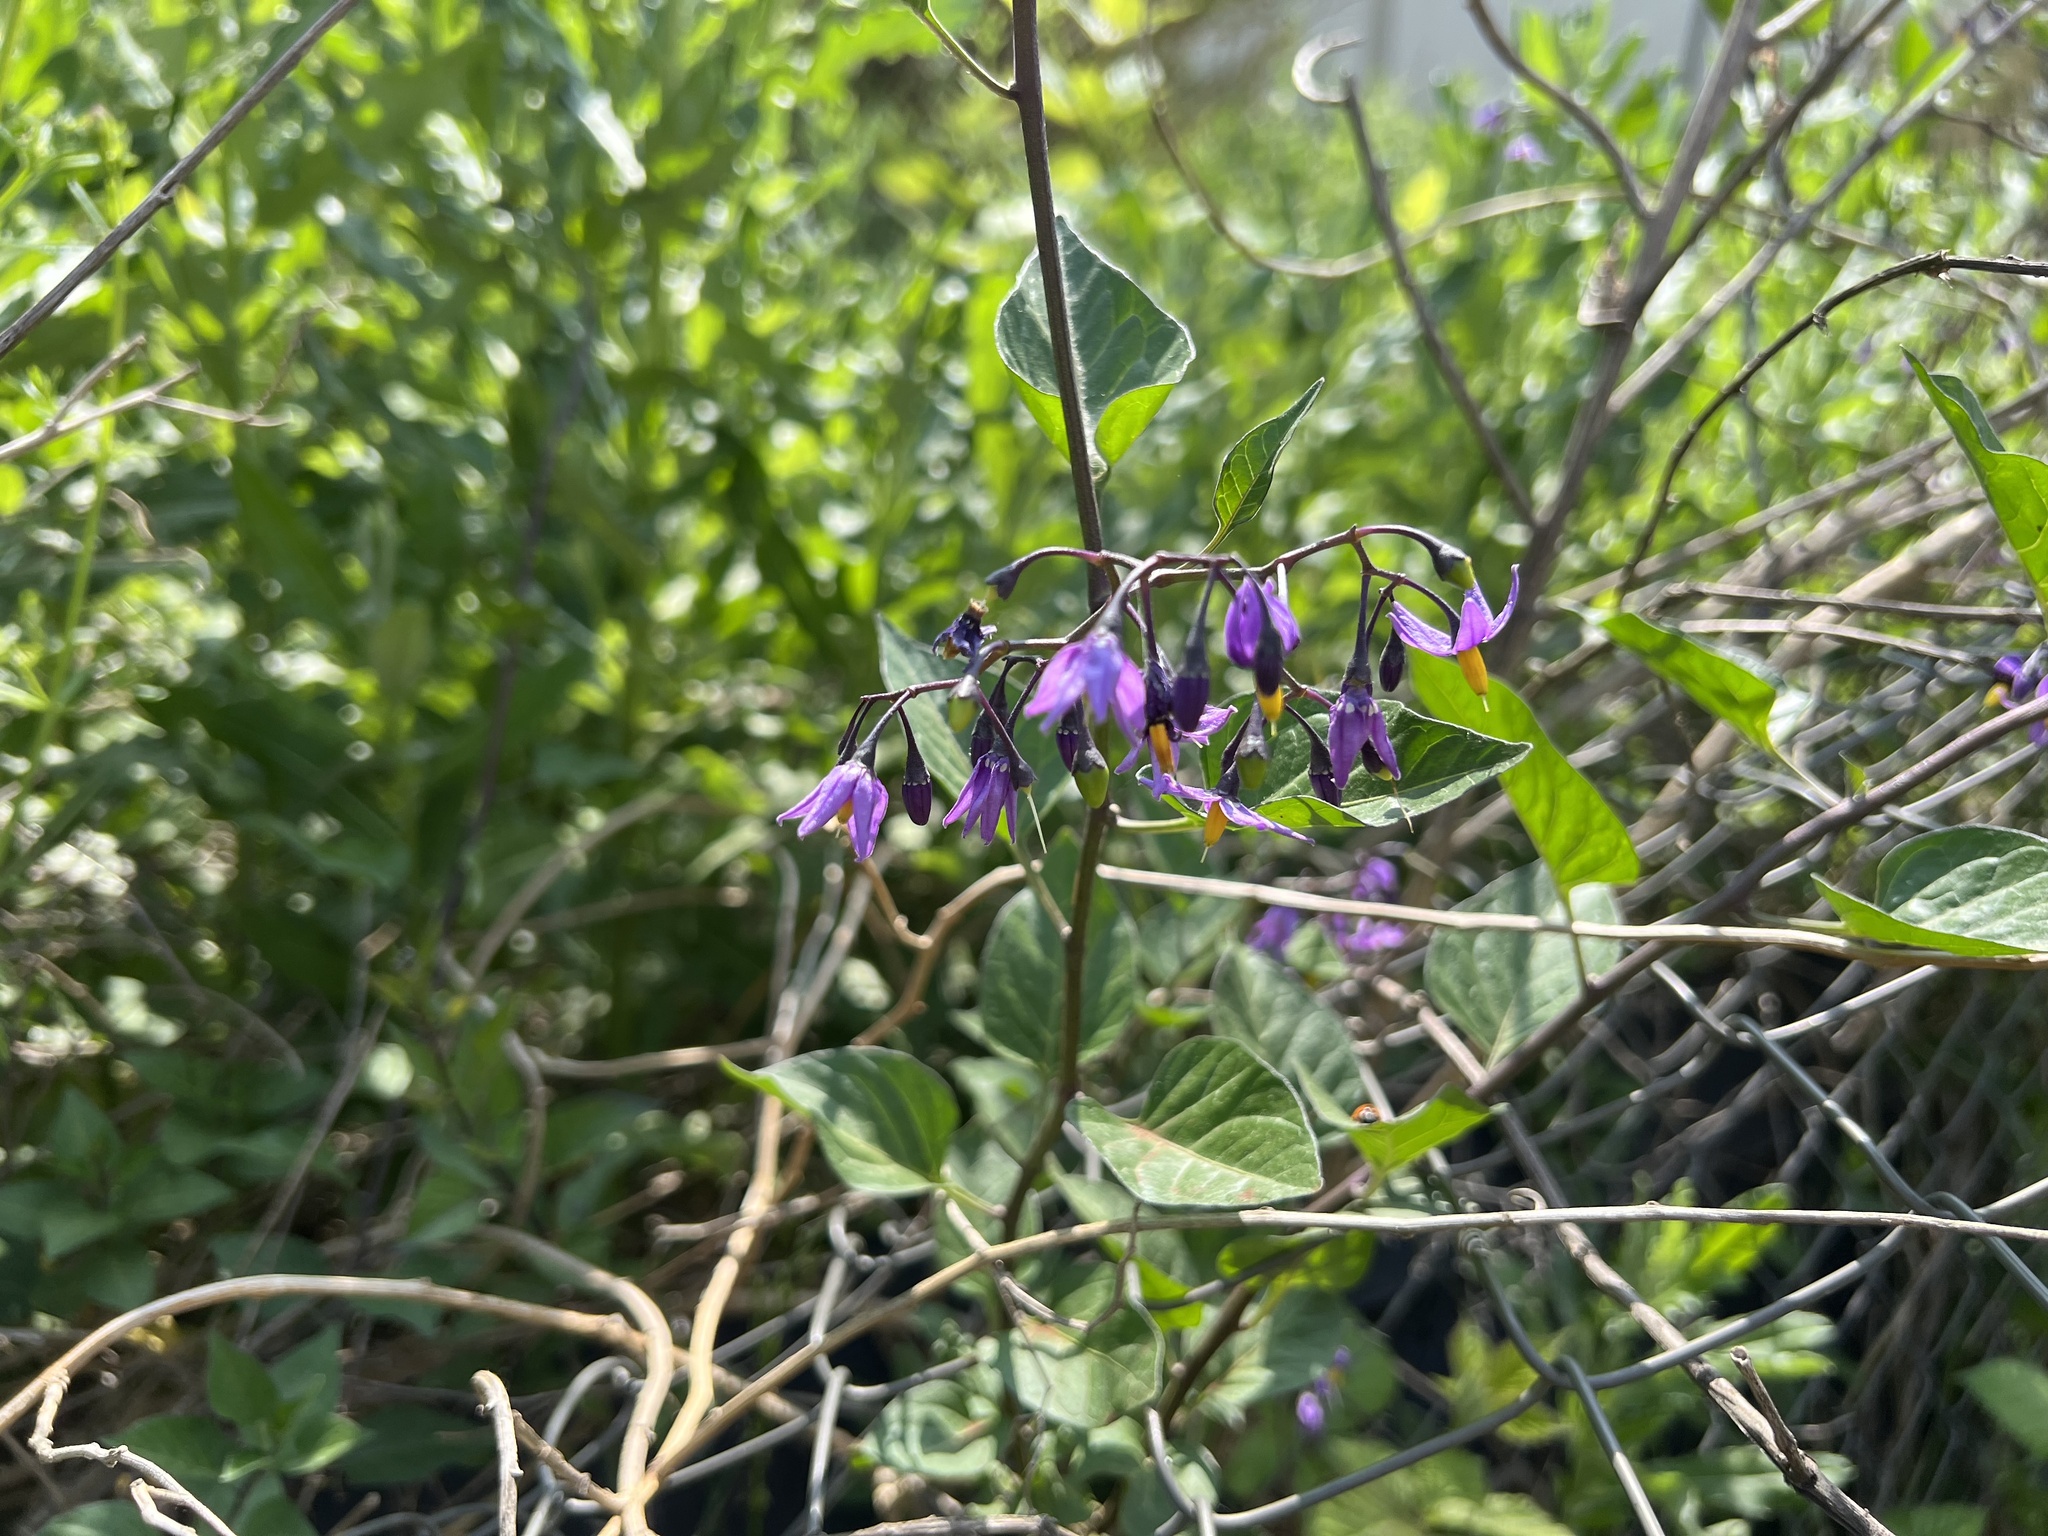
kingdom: Plantae
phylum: Tracheophyta
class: Magnoliopsida
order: Solanales
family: Solanaceae
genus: Solanum
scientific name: Solanum dulcamara
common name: Climbing nightshade
